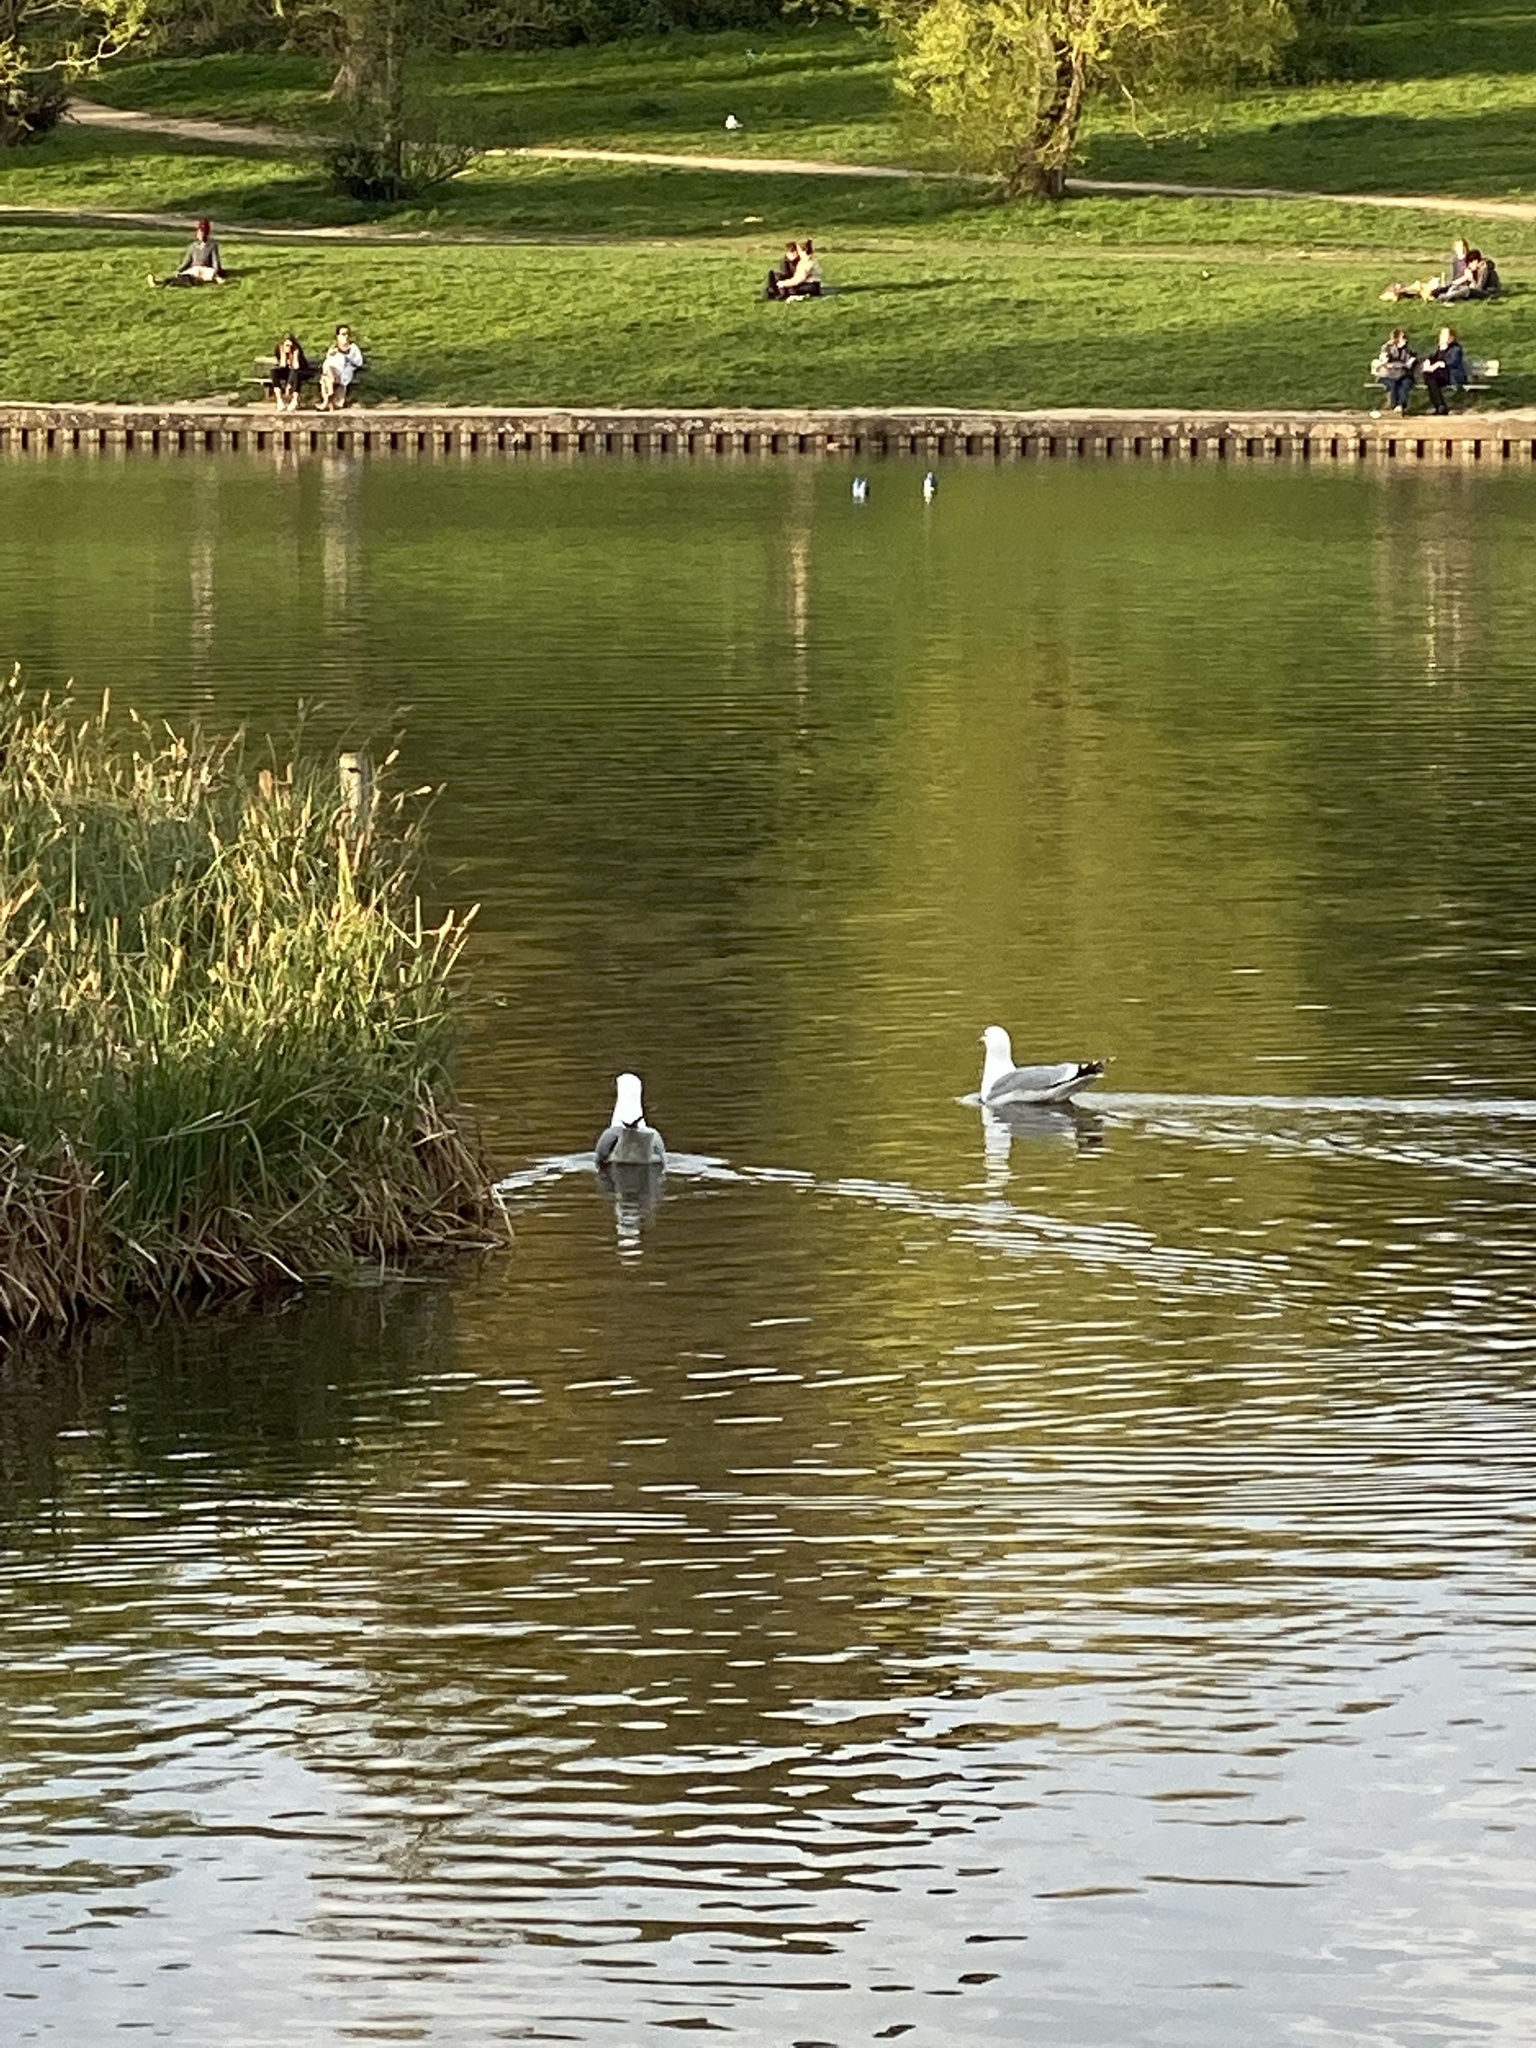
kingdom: Animalia
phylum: Chordata
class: Aves
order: Charadriiformes
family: Laridae
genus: Larus
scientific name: Larus argentatus
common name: Herring gull
